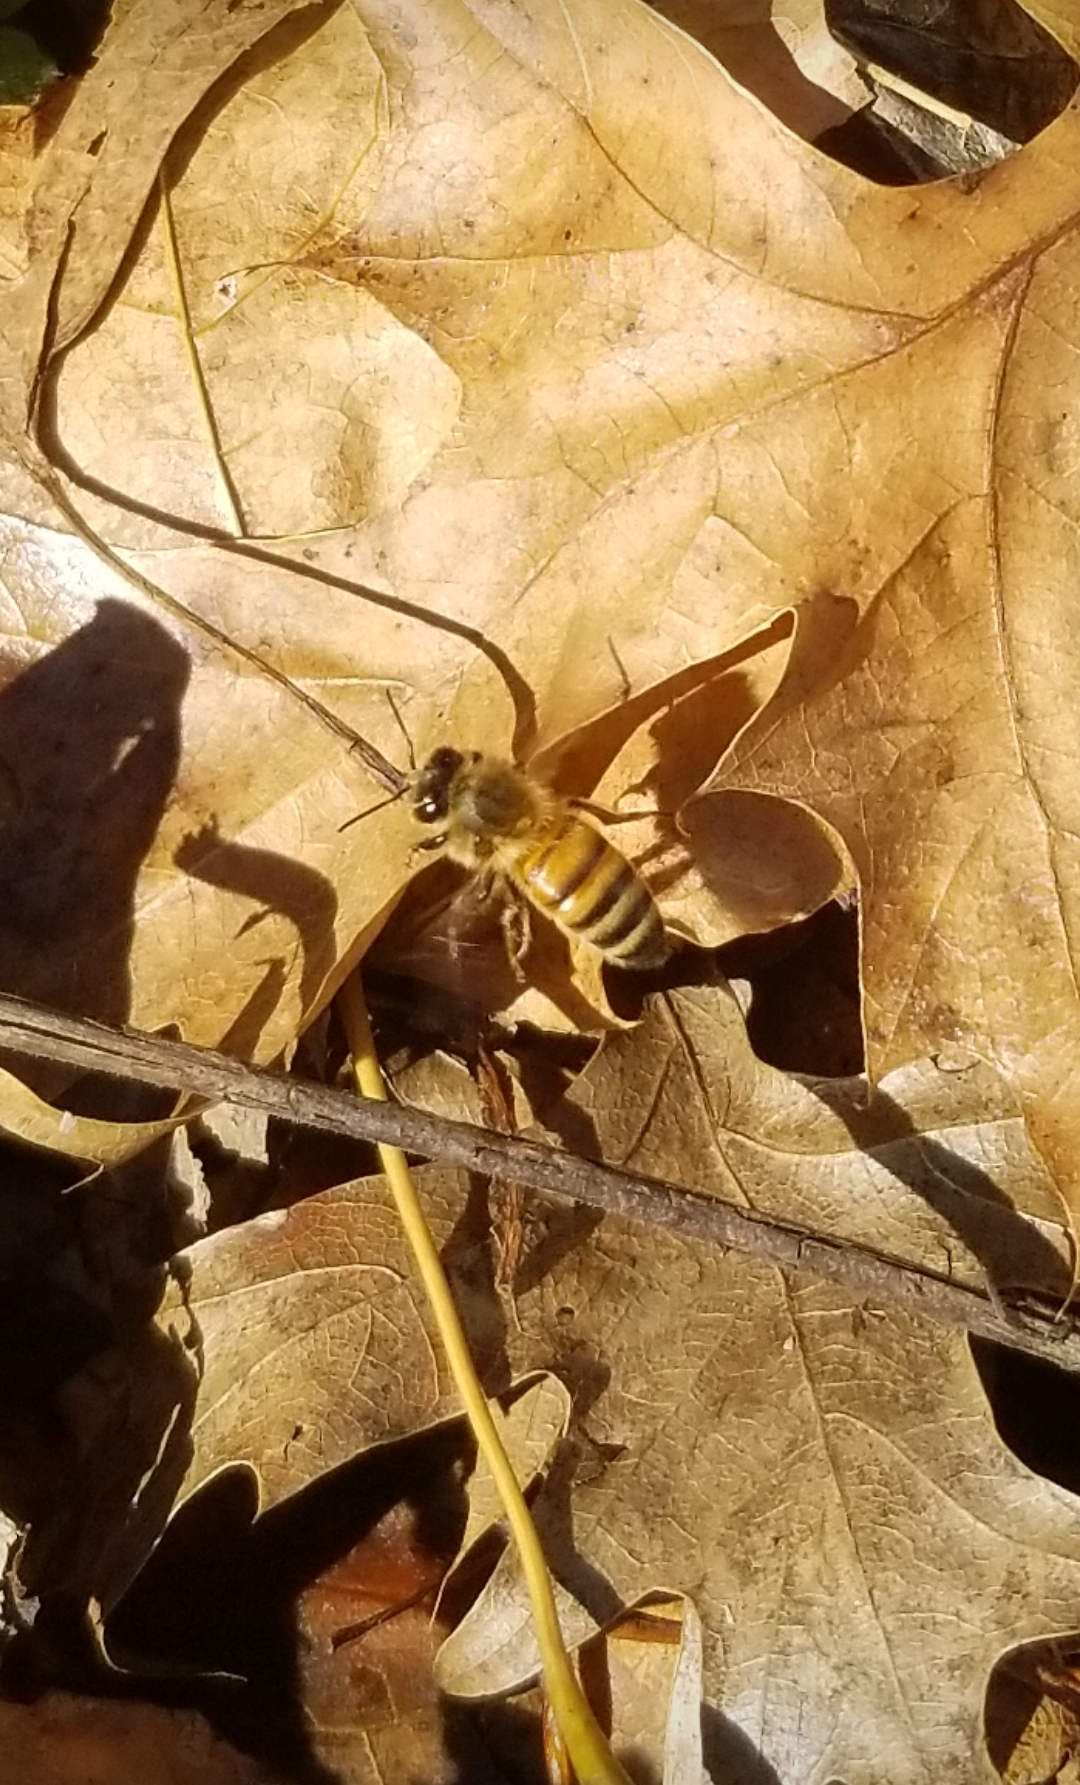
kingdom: Animalia
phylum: Arthropoda
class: Insecta
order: Hymenoptera
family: Apidae
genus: Apis
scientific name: Apis mellifera
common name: Honey bee
